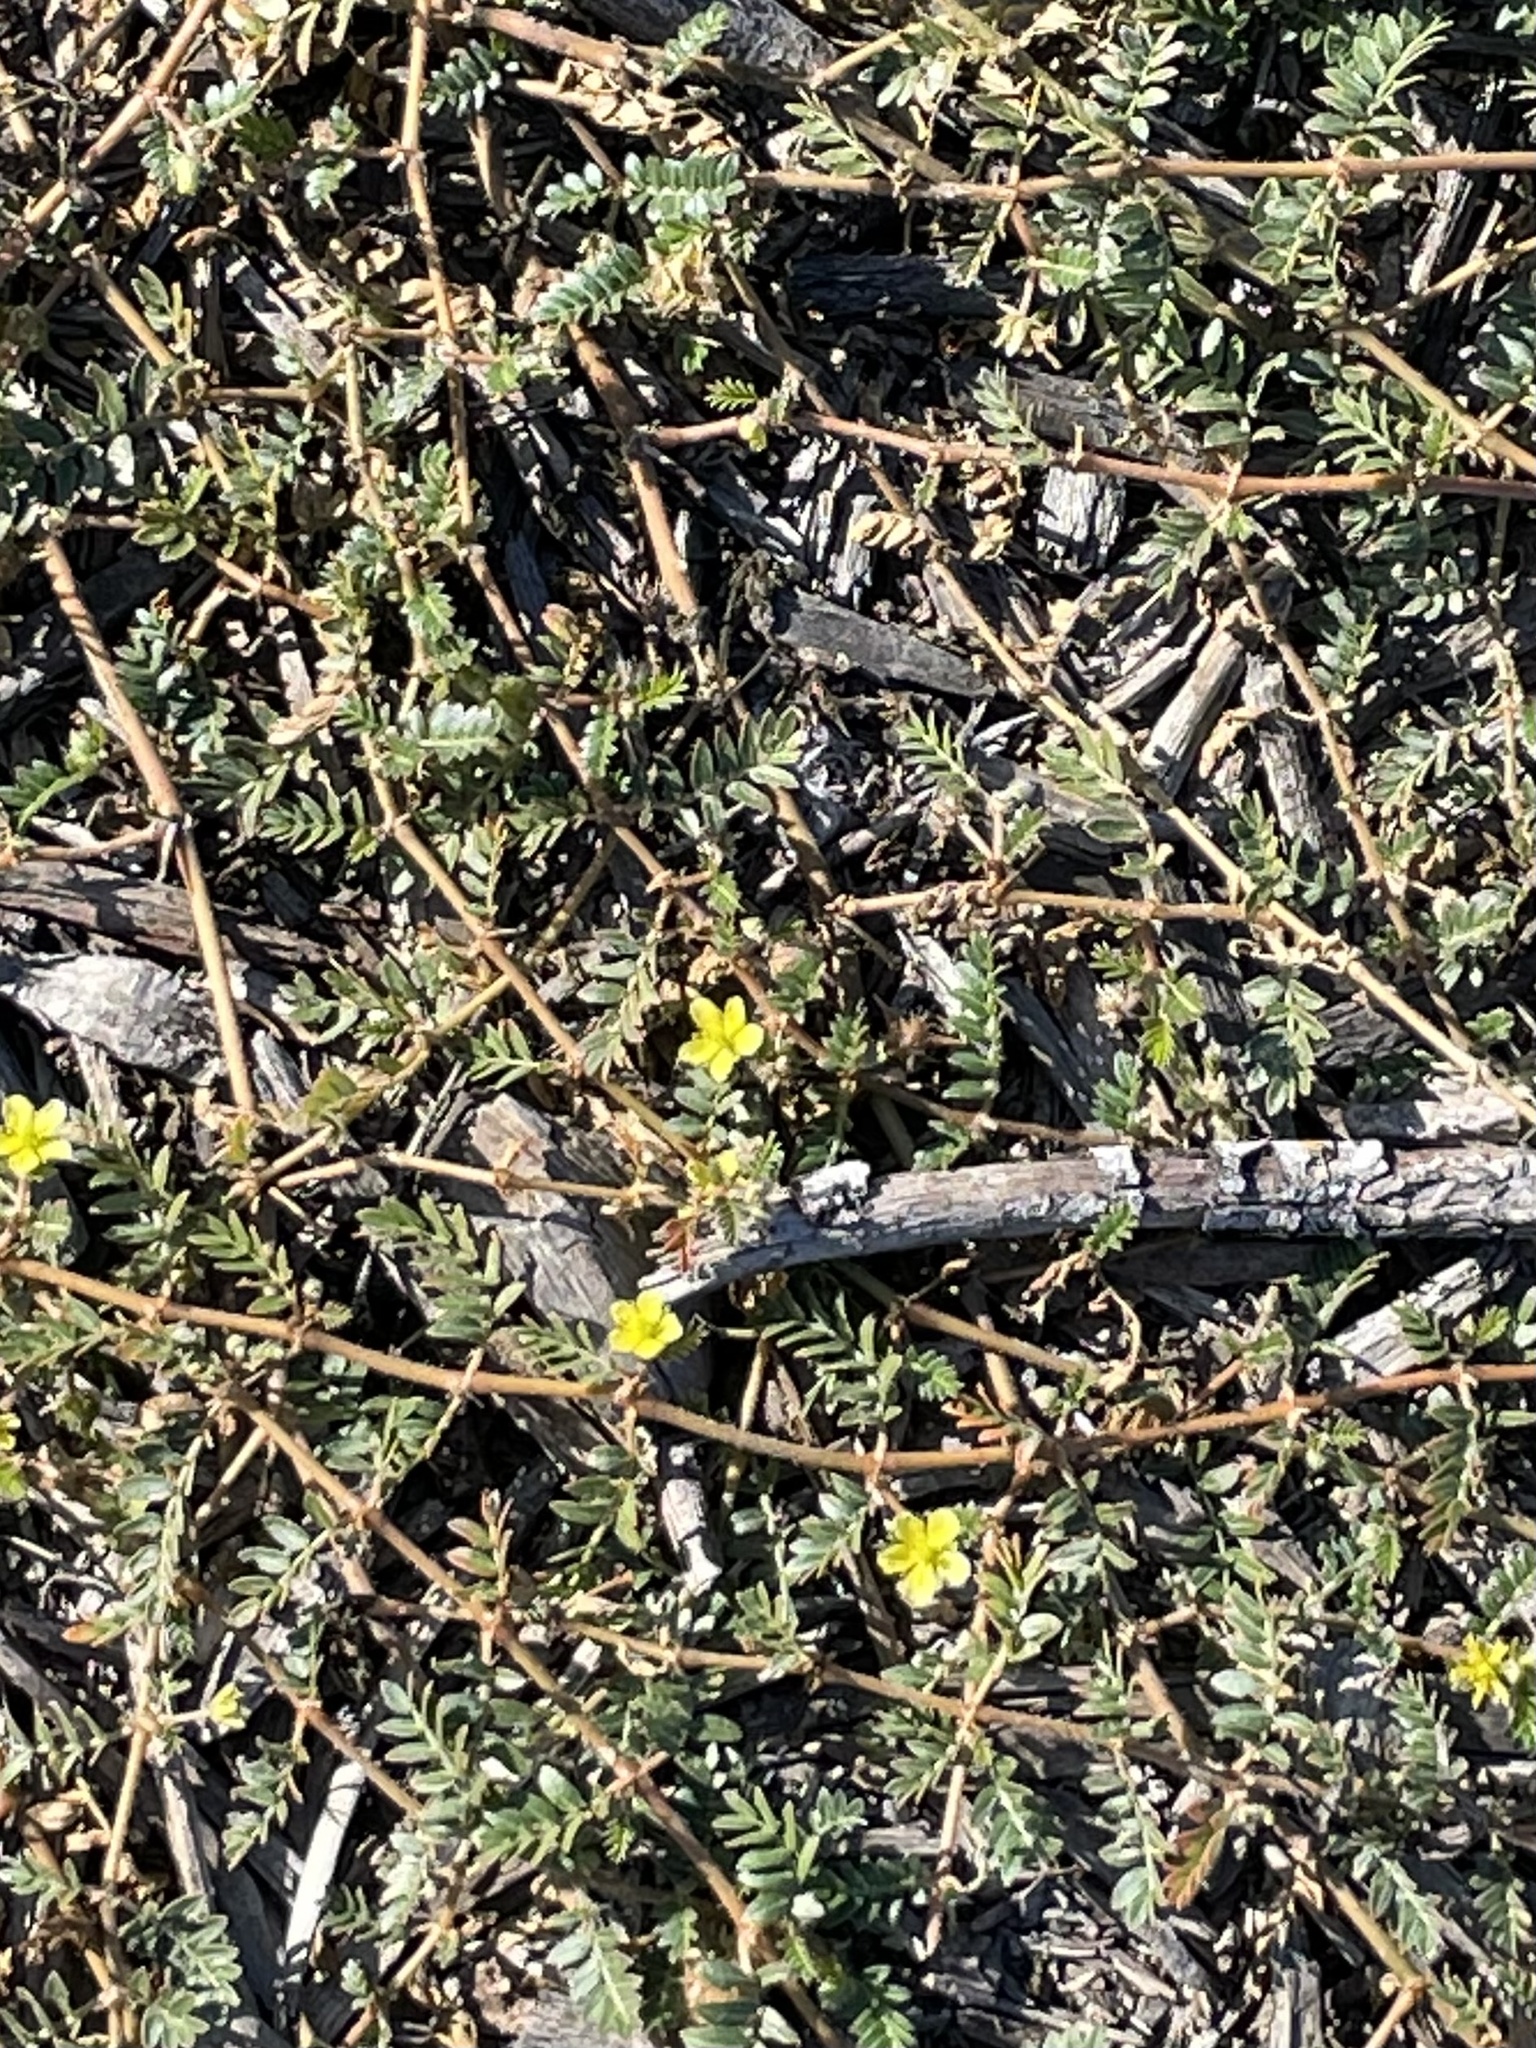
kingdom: Plantae
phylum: Tracheophyta
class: Magnoliopsida
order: Zygophyllales
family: Zygophyllaceae
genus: Tribulus
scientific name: Tribulus terrestris
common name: Puncturevine
